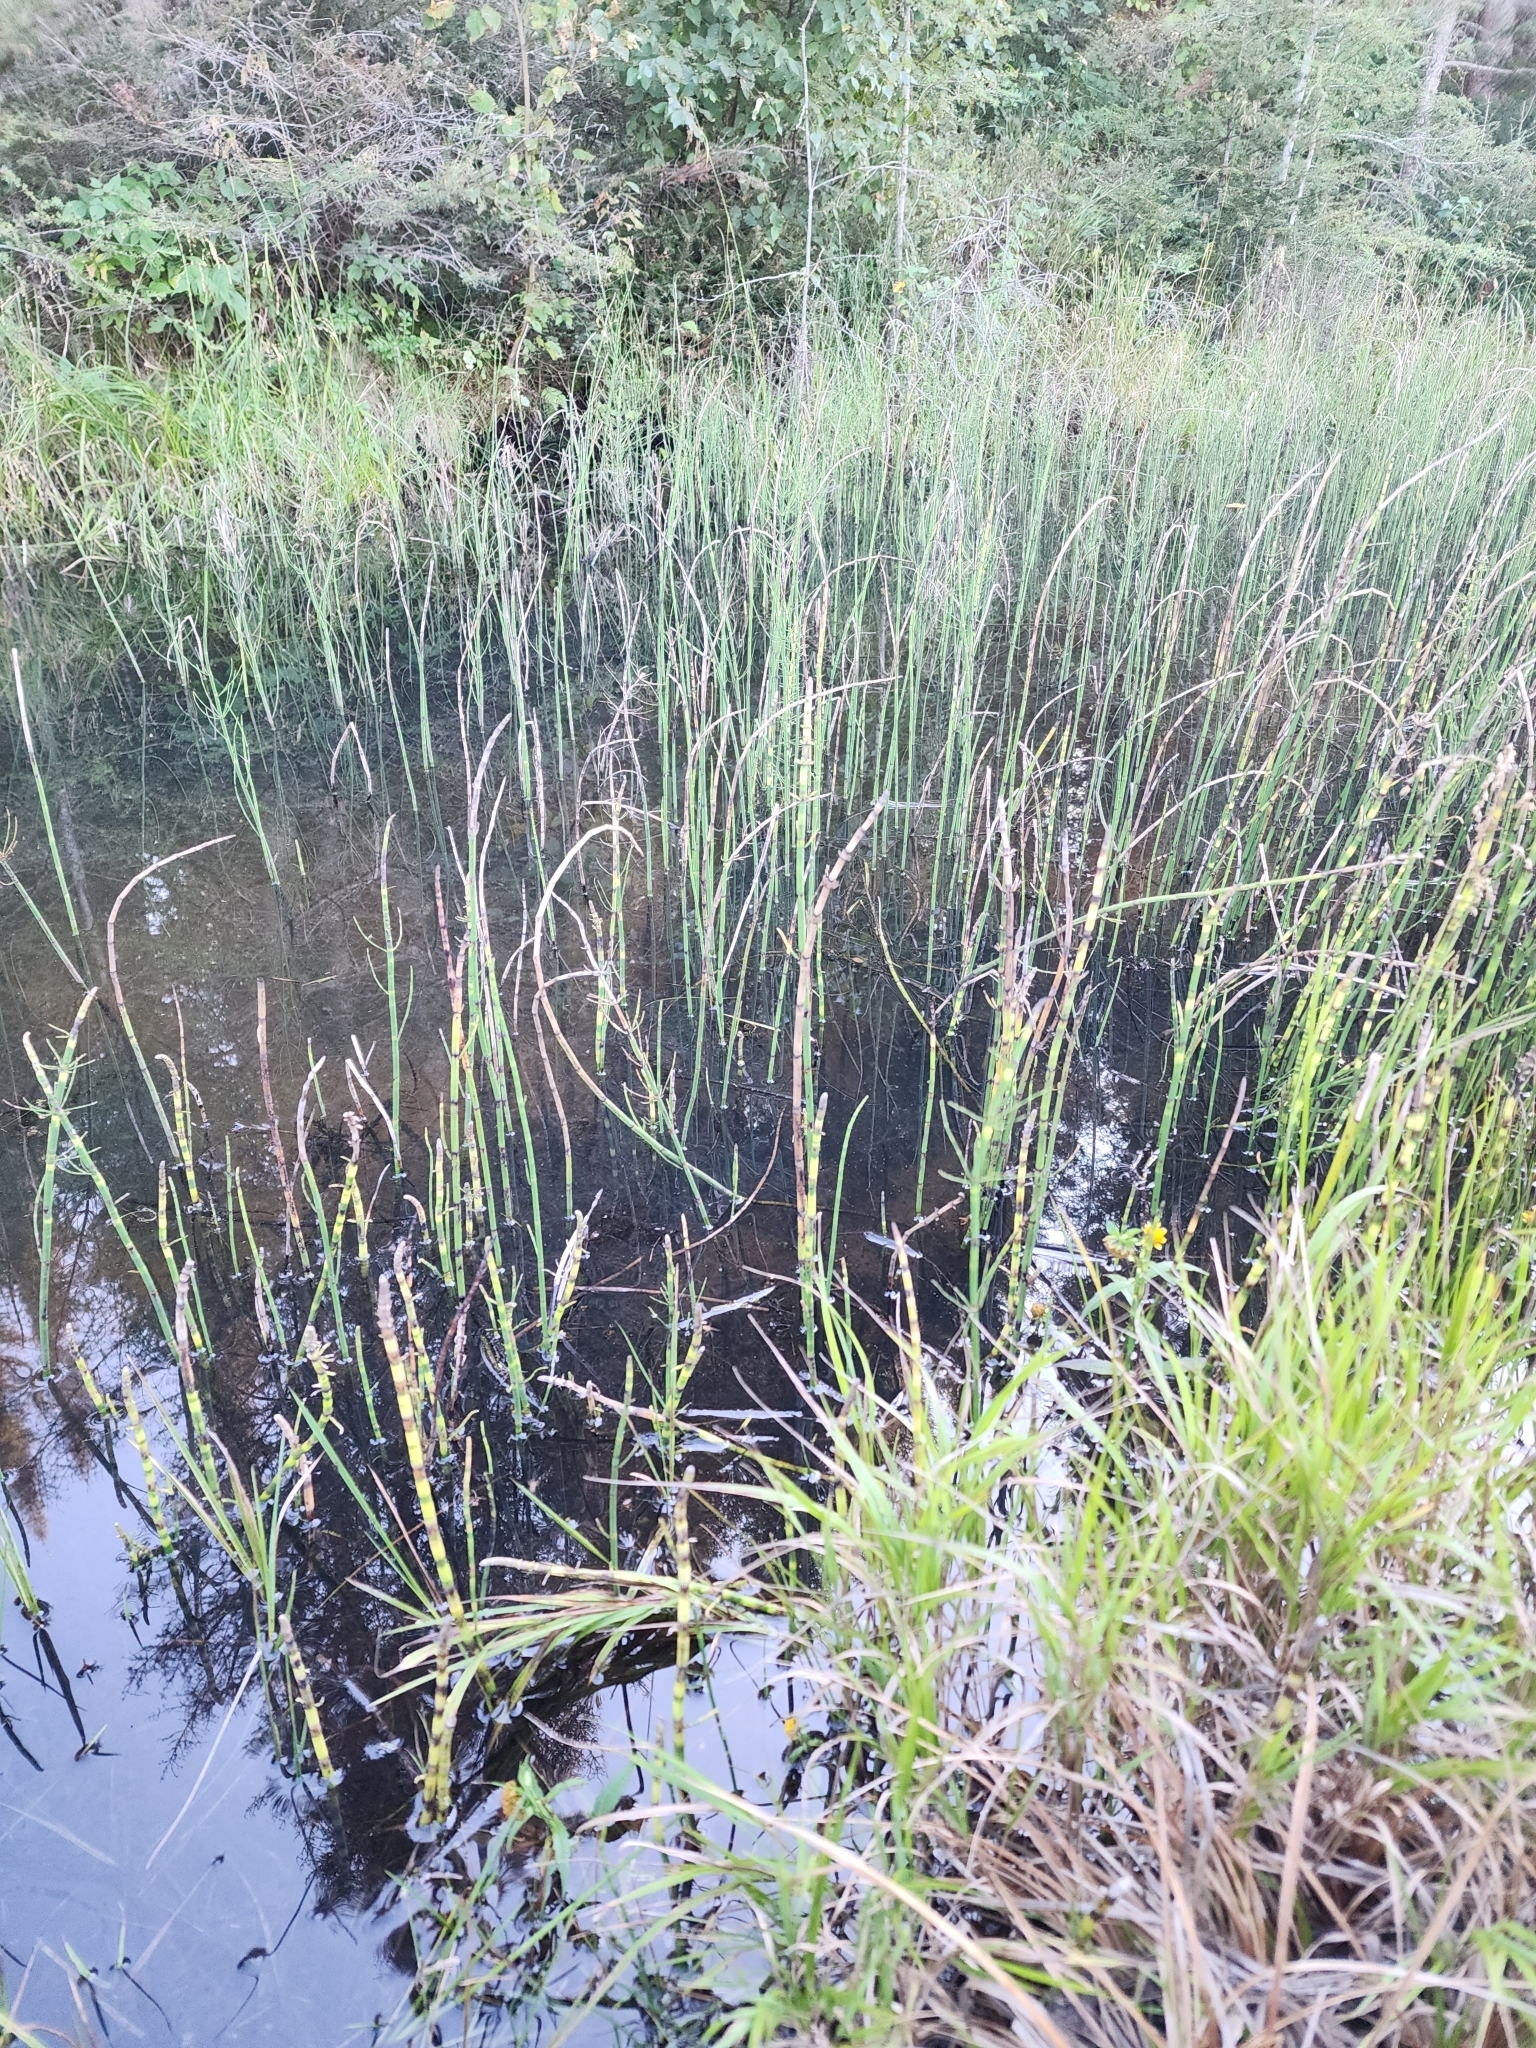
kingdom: Plantae
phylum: Tracheophyta
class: Polypodiopsida
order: Equisetales
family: Equisetaceae
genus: Equisetum
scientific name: Equisetum fluviatile
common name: Water horsetail
